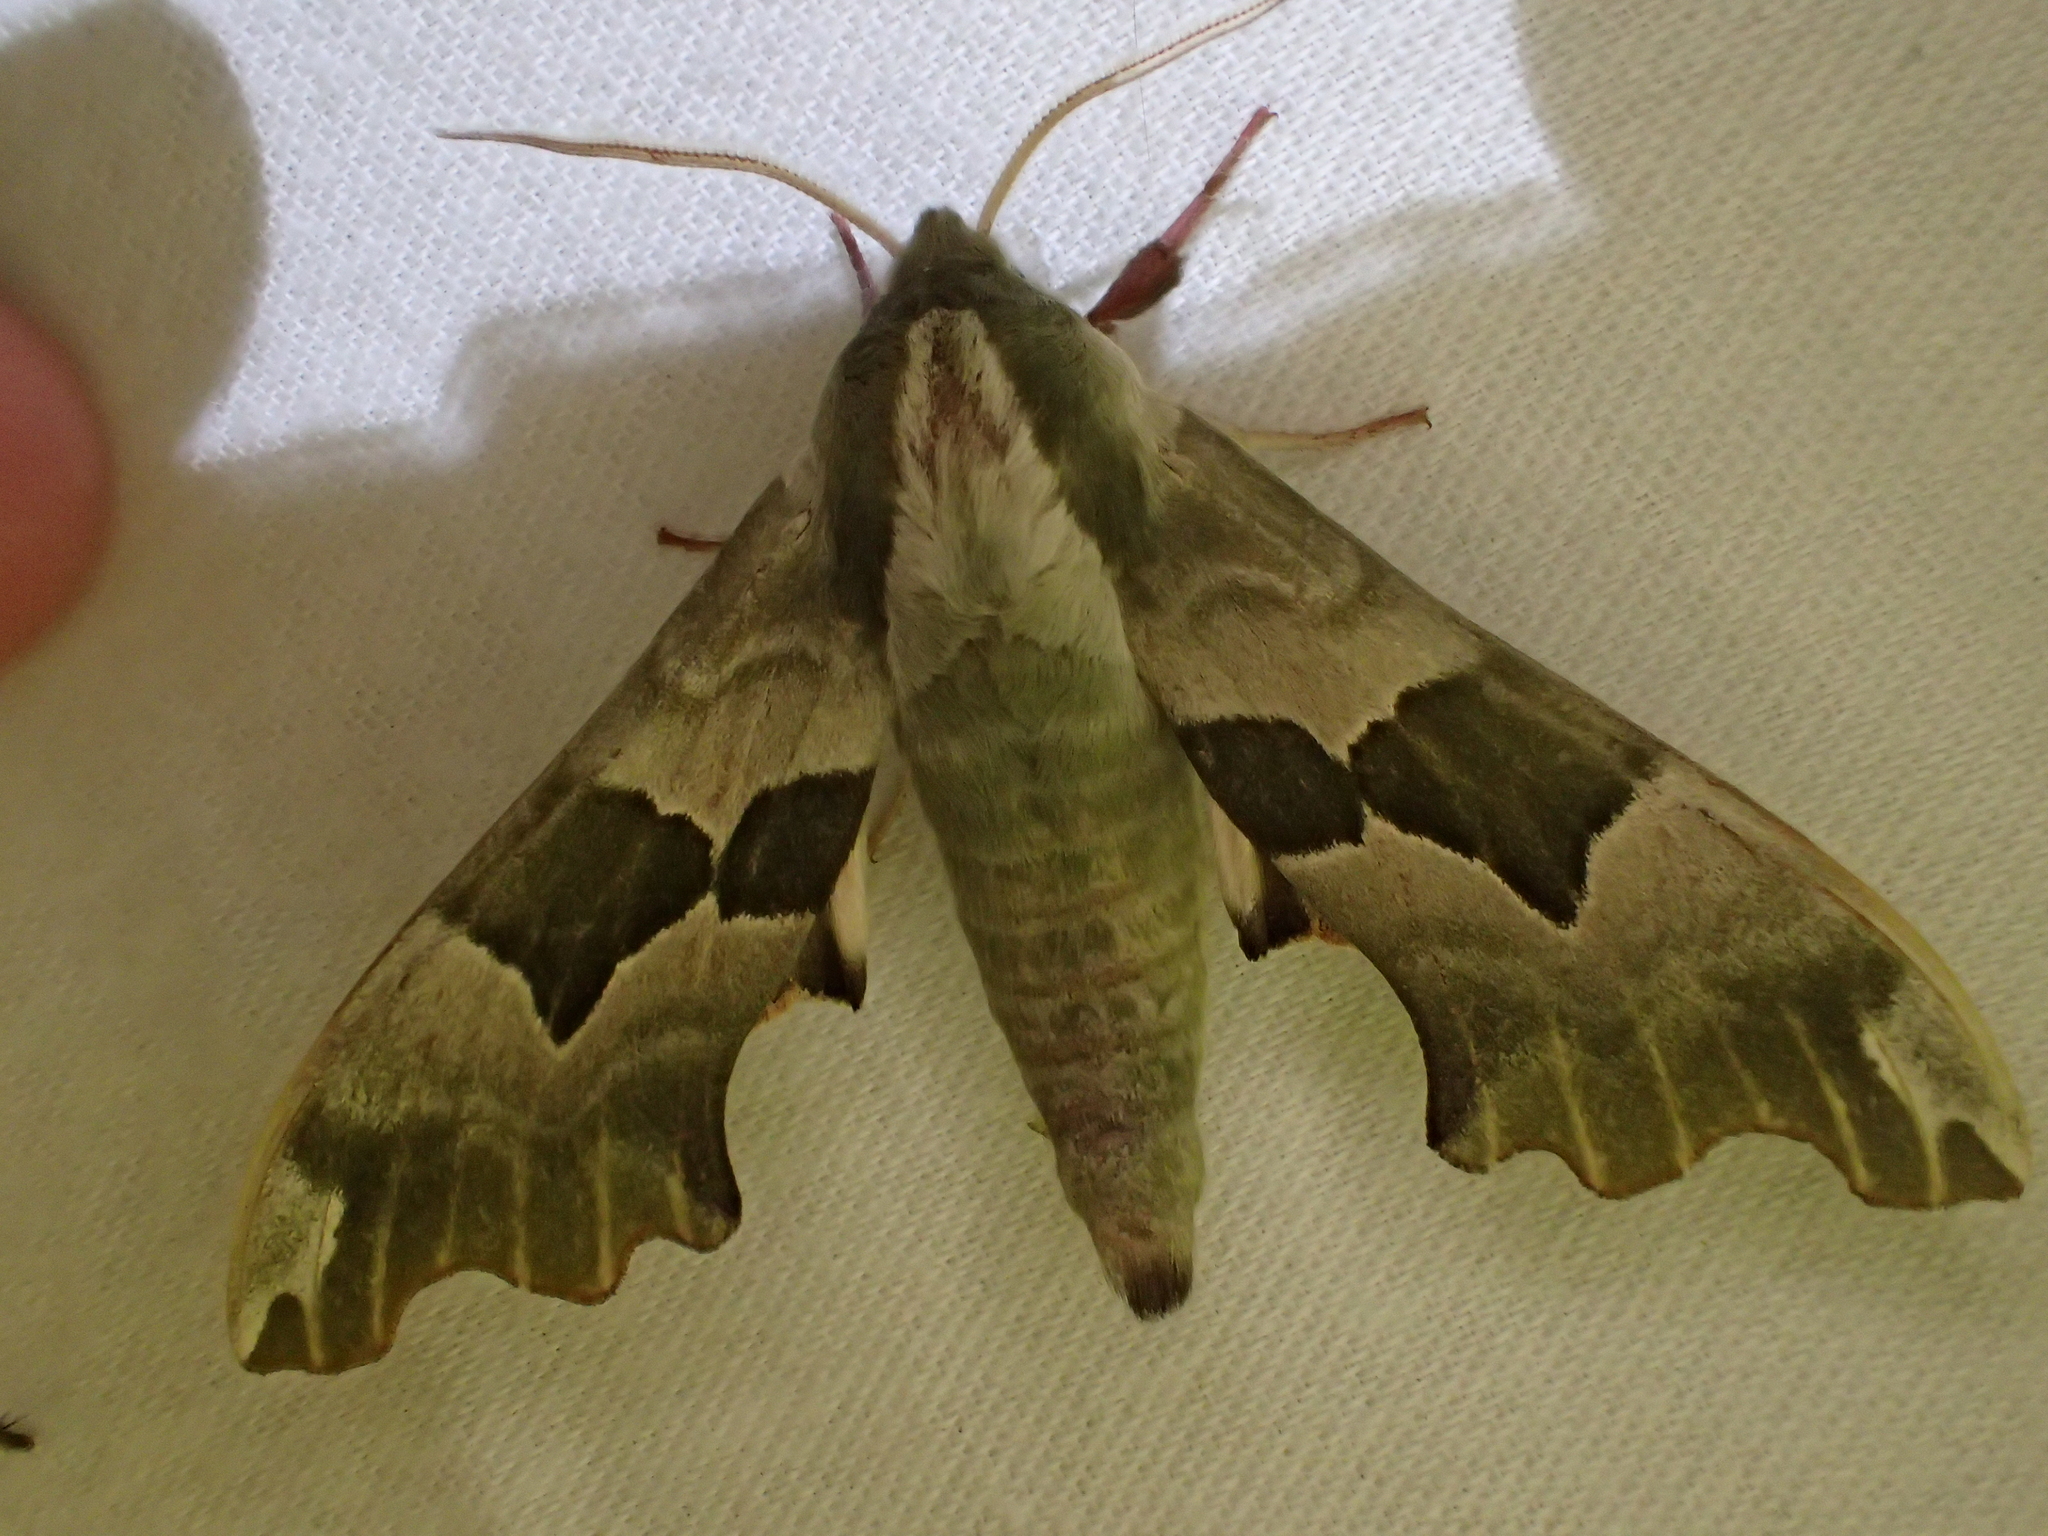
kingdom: Animalia
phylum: Arthropoda
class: Insecta
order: Lepidoptera
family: Sphingidae
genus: Mimas
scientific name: Mimas tiliae
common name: Lime hawk-moth
